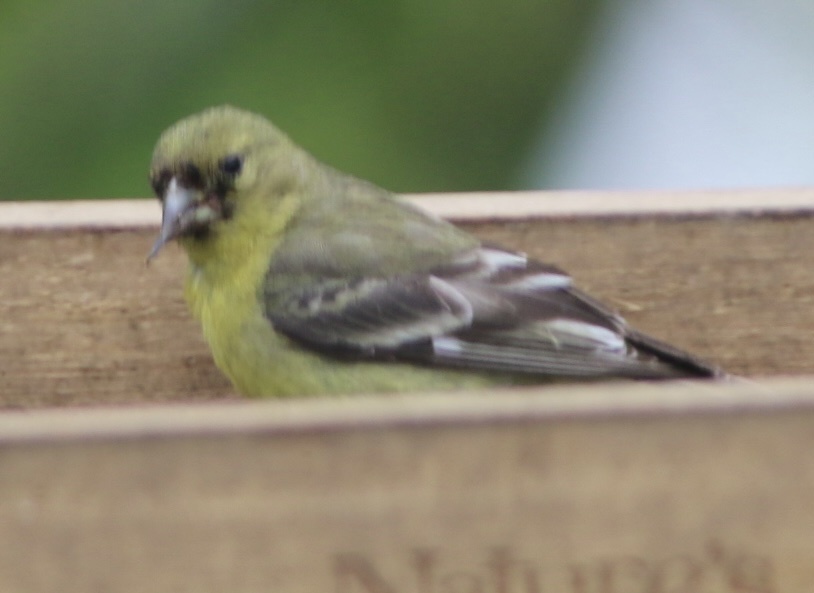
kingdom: Animalia
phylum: Chordata
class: Aves
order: Passeriformes
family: Fringillidae
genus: Spinus
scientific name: Spinus psaltria
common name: Lesser goldfinch
